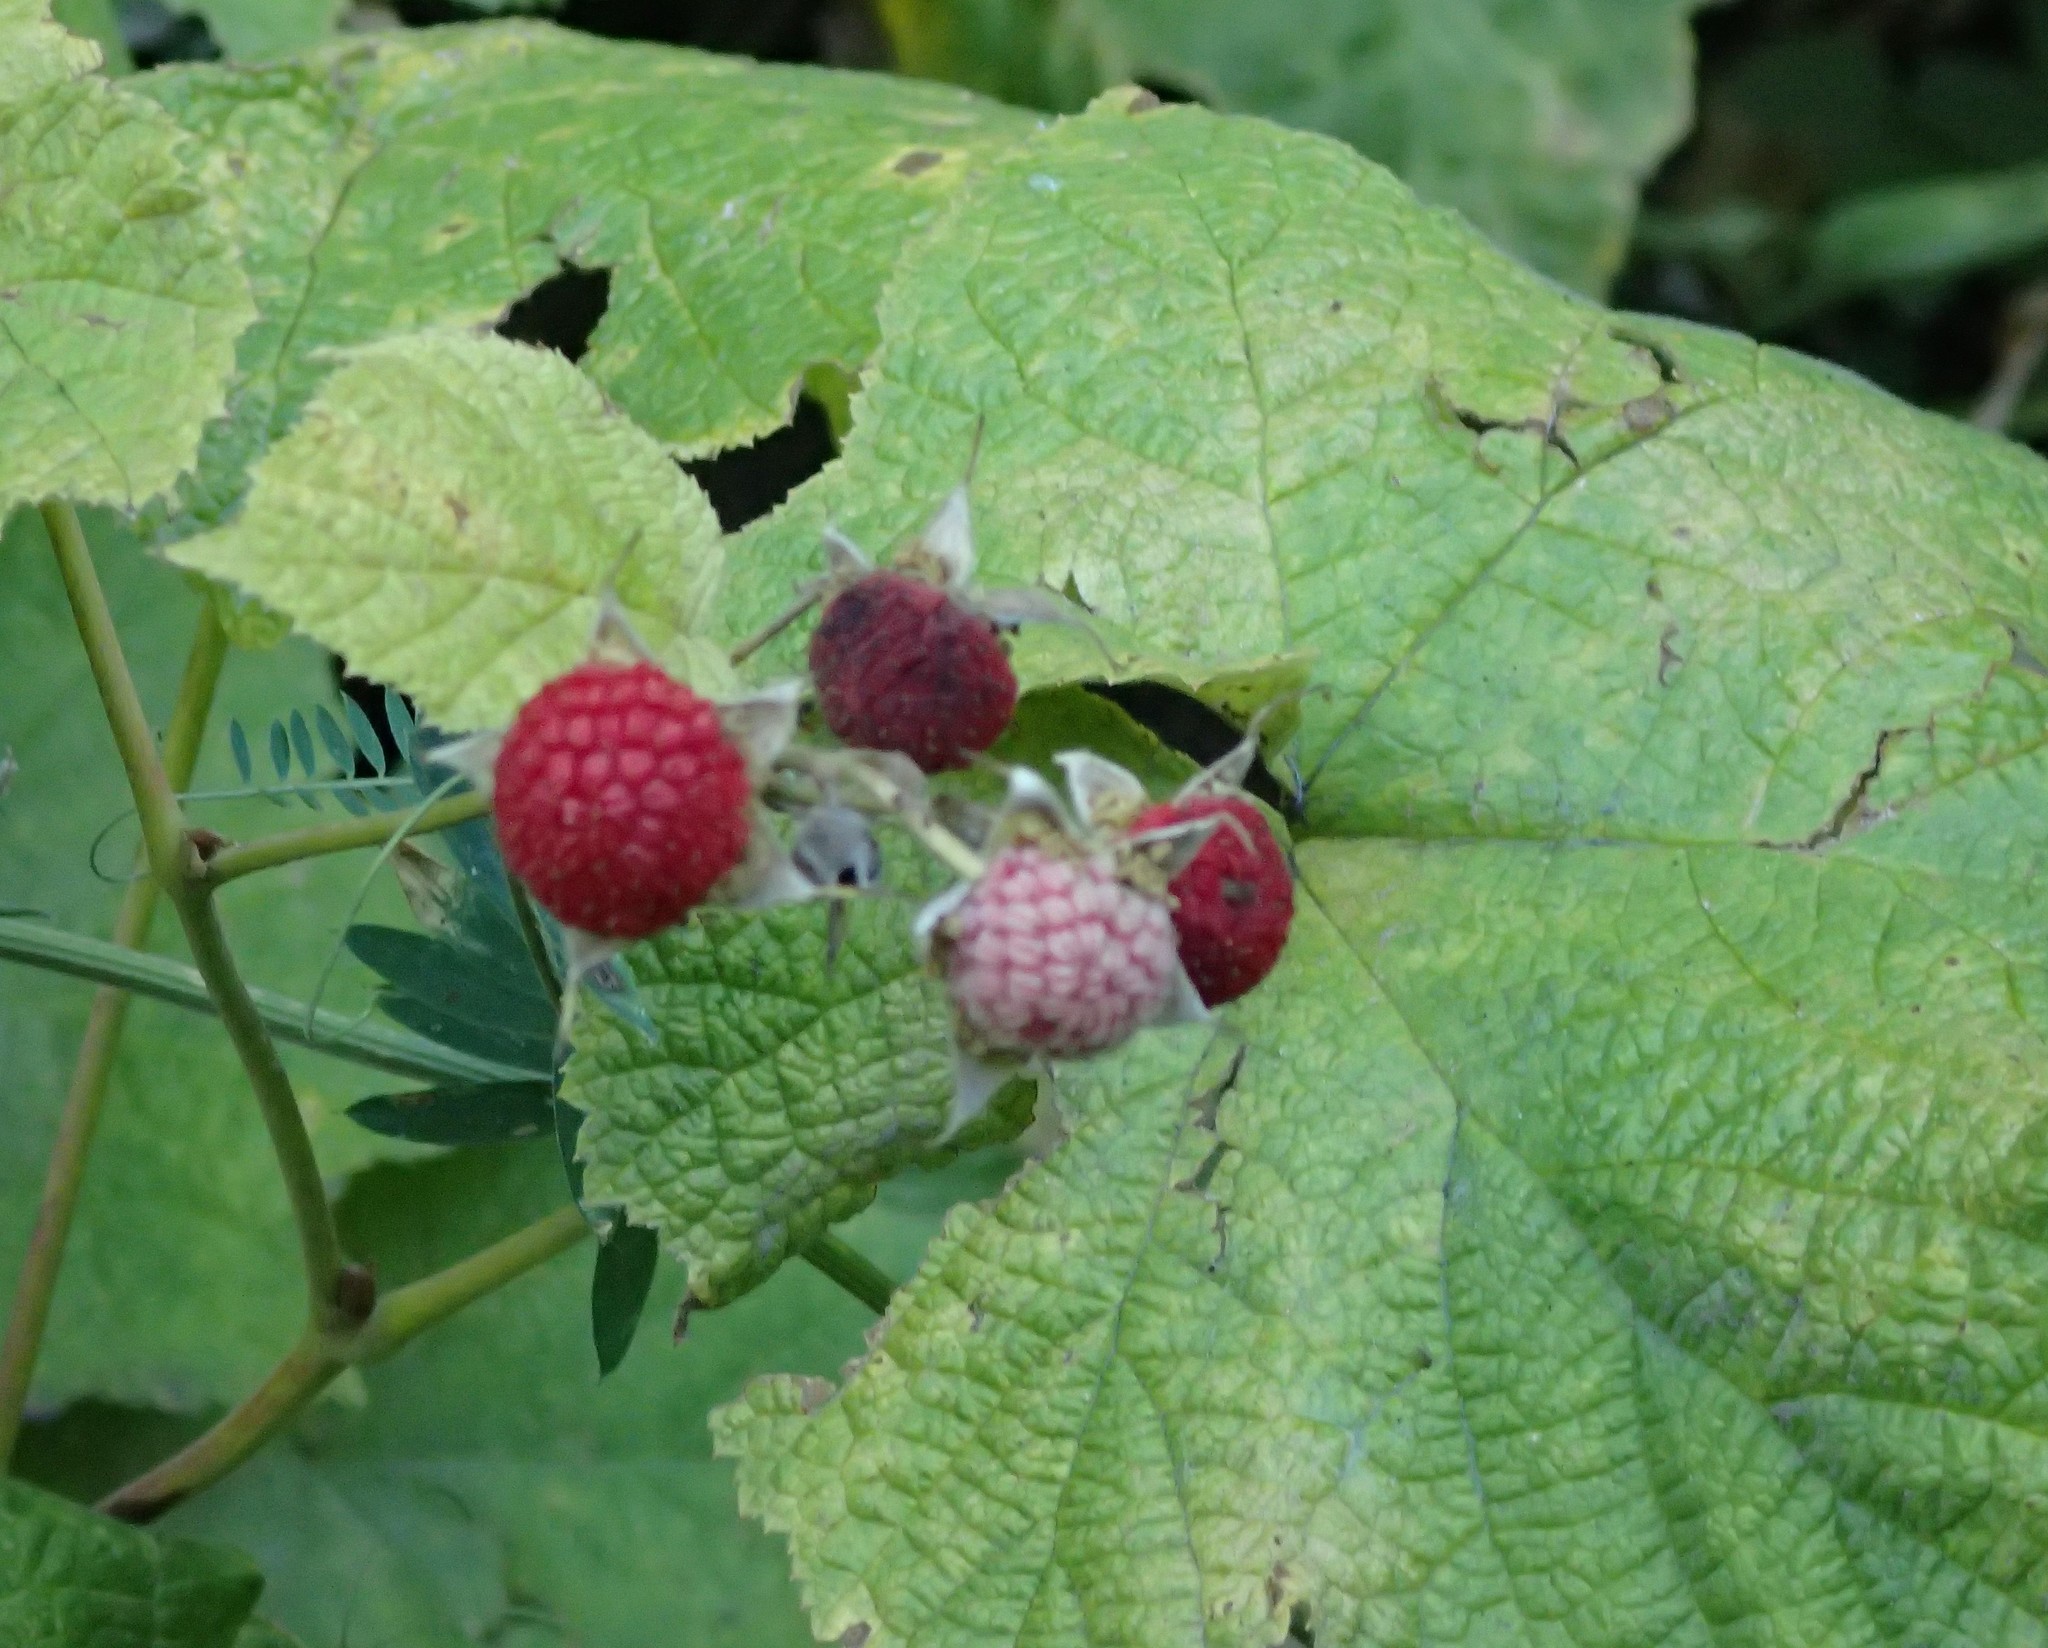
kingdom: Plantae
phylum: Tracheophyta
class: Magnoliopsida
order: Rosales
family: Rosaceae
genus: Rubus
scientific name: Rubus parviflorus
